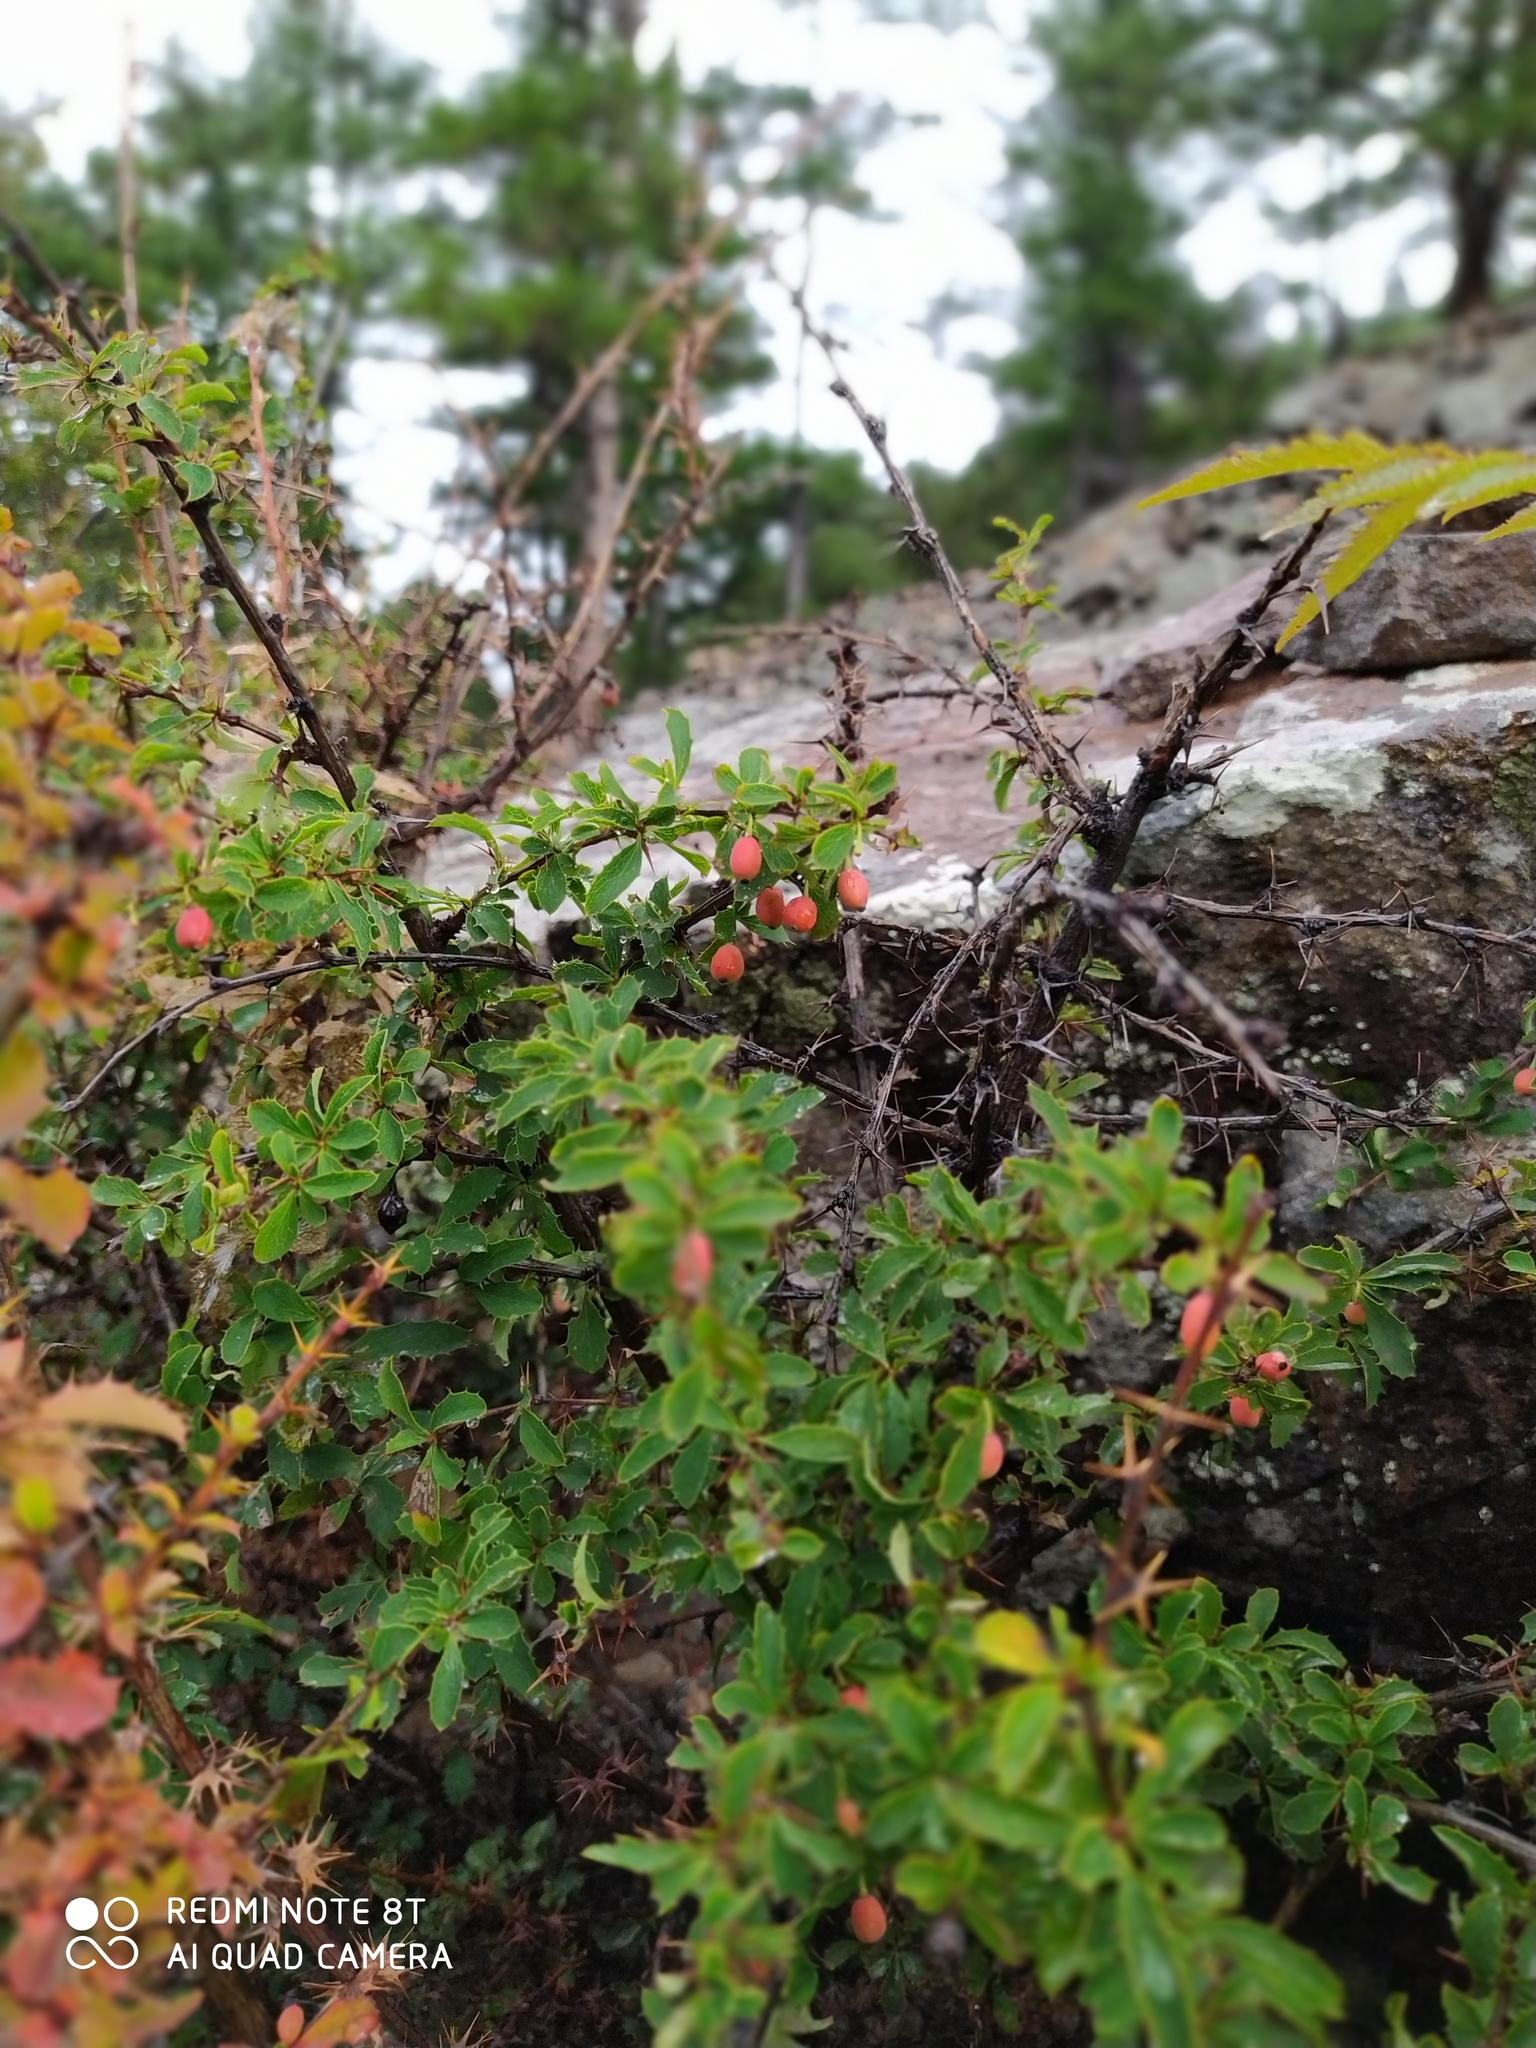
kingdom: Plantae
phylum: Tracheophyta
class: Magnoliopsida
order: Ranunculales
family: Berberidaceae
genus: Berberis
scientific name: Berberis sibirica
